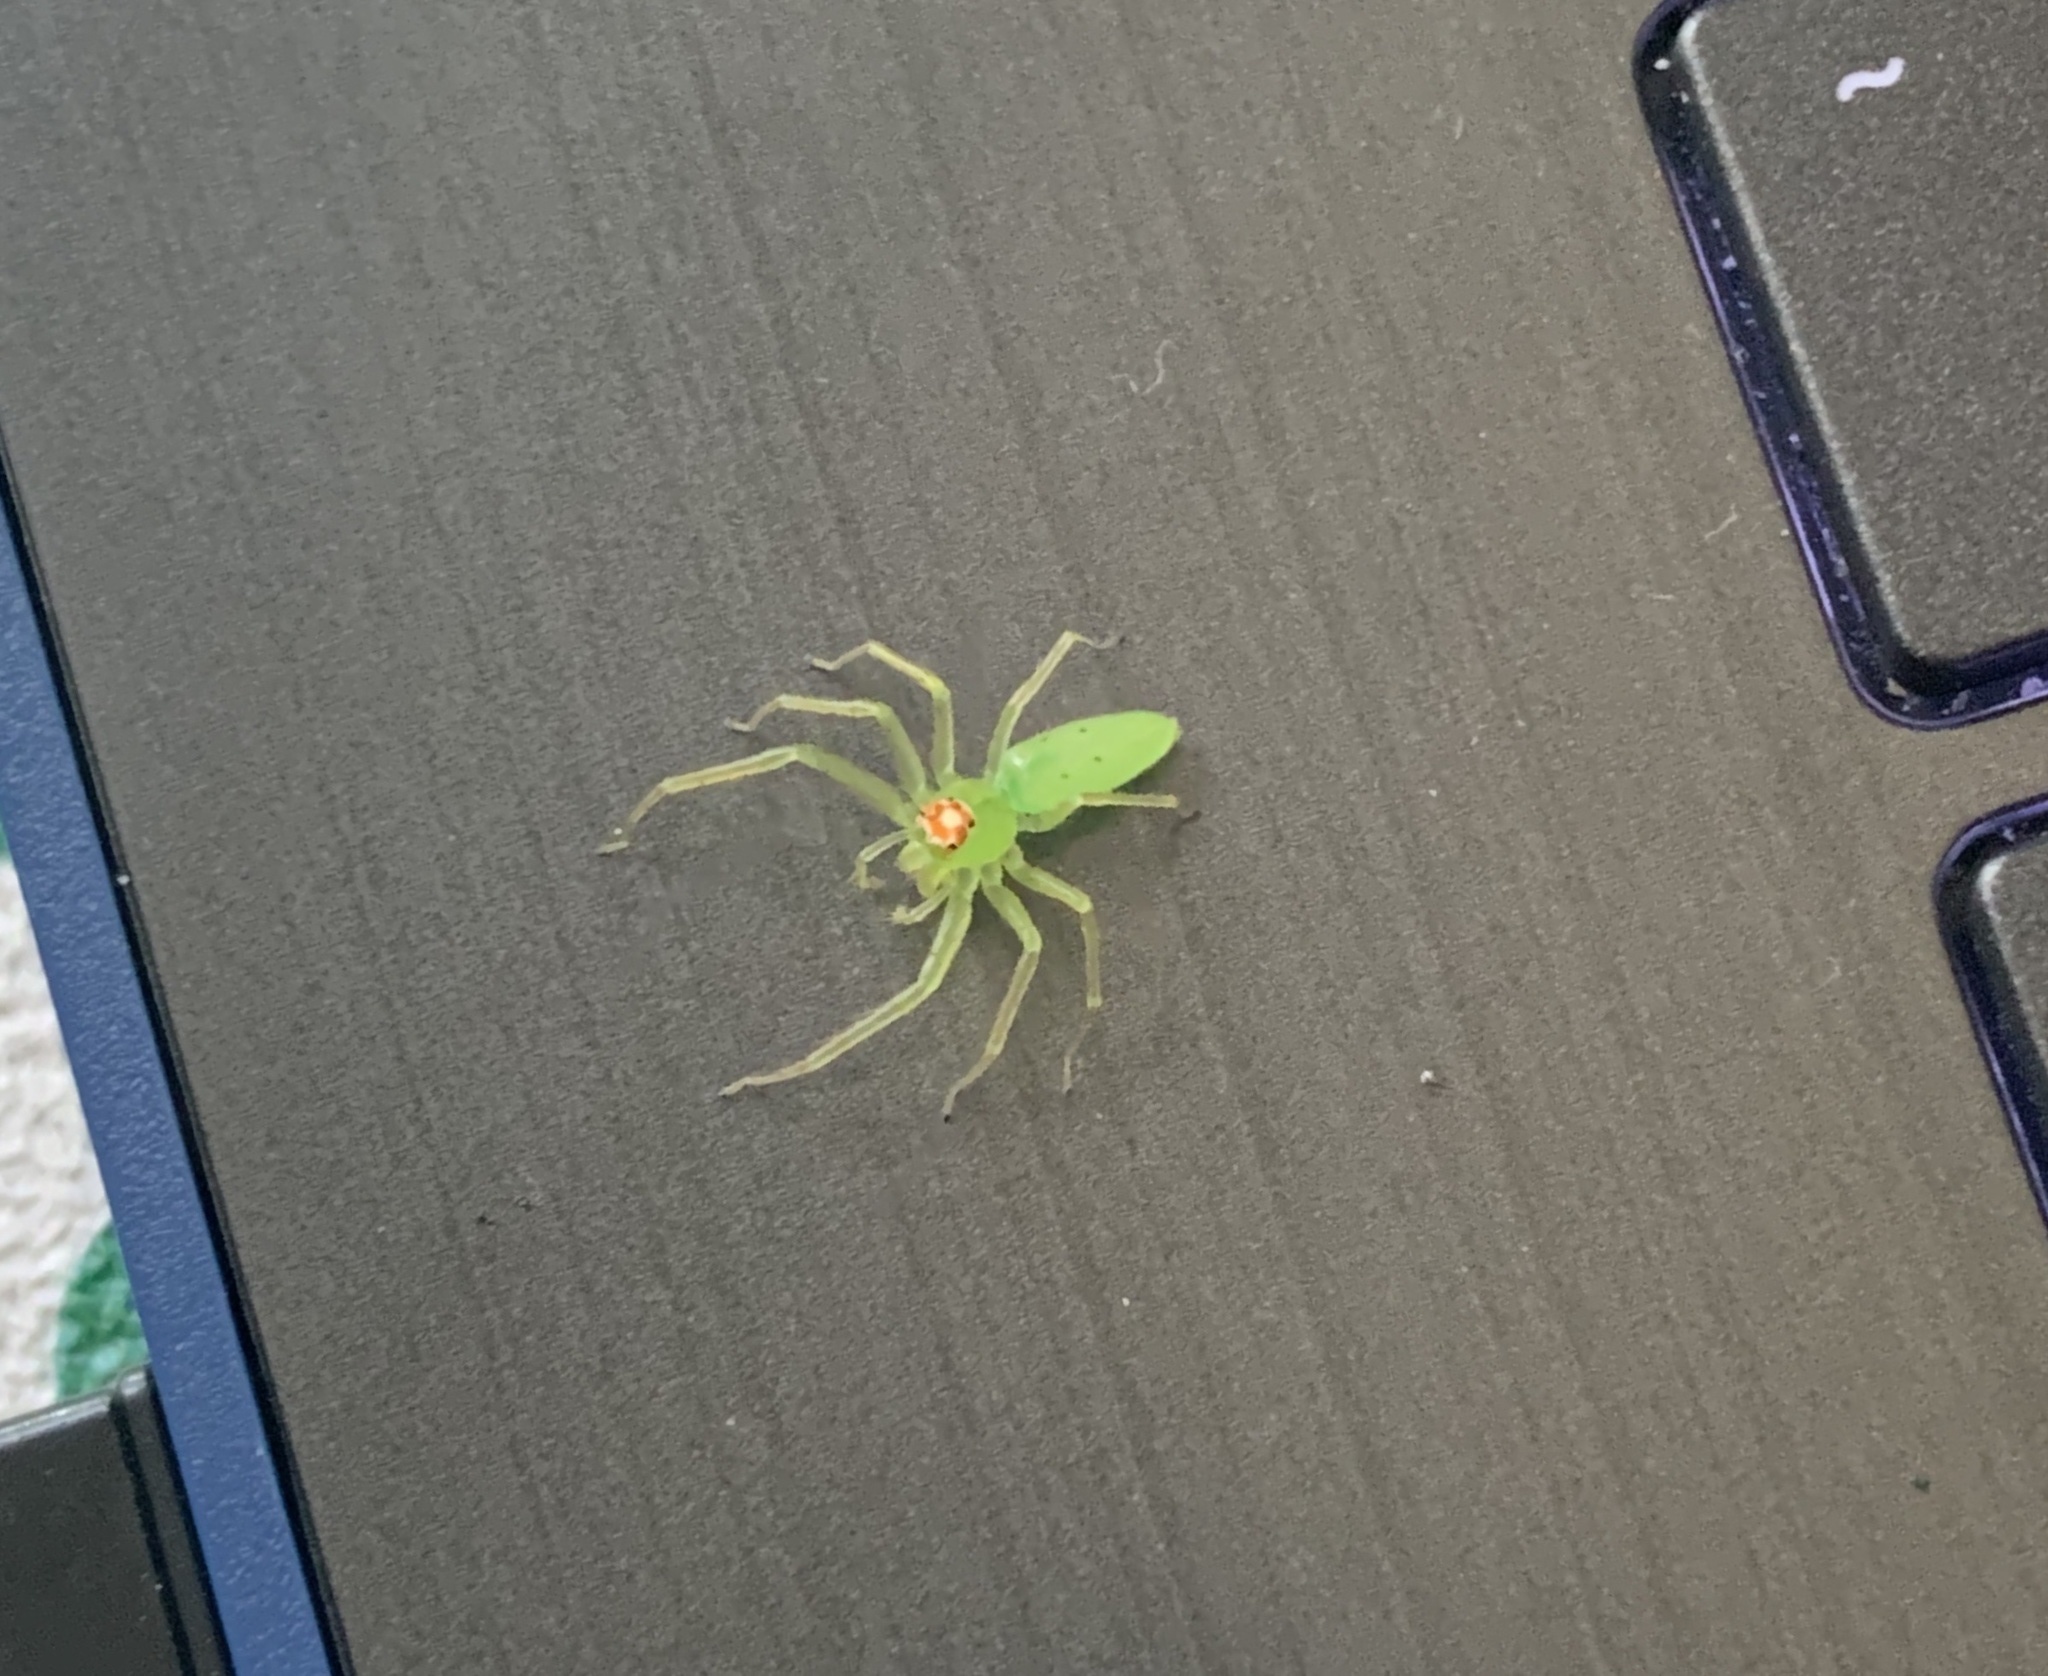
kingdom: Animalia
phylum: Arthropoda
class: Arachnida
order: Araneae
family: Salticidae
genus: Lyssomanes
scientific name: Lyssomanes viridis
